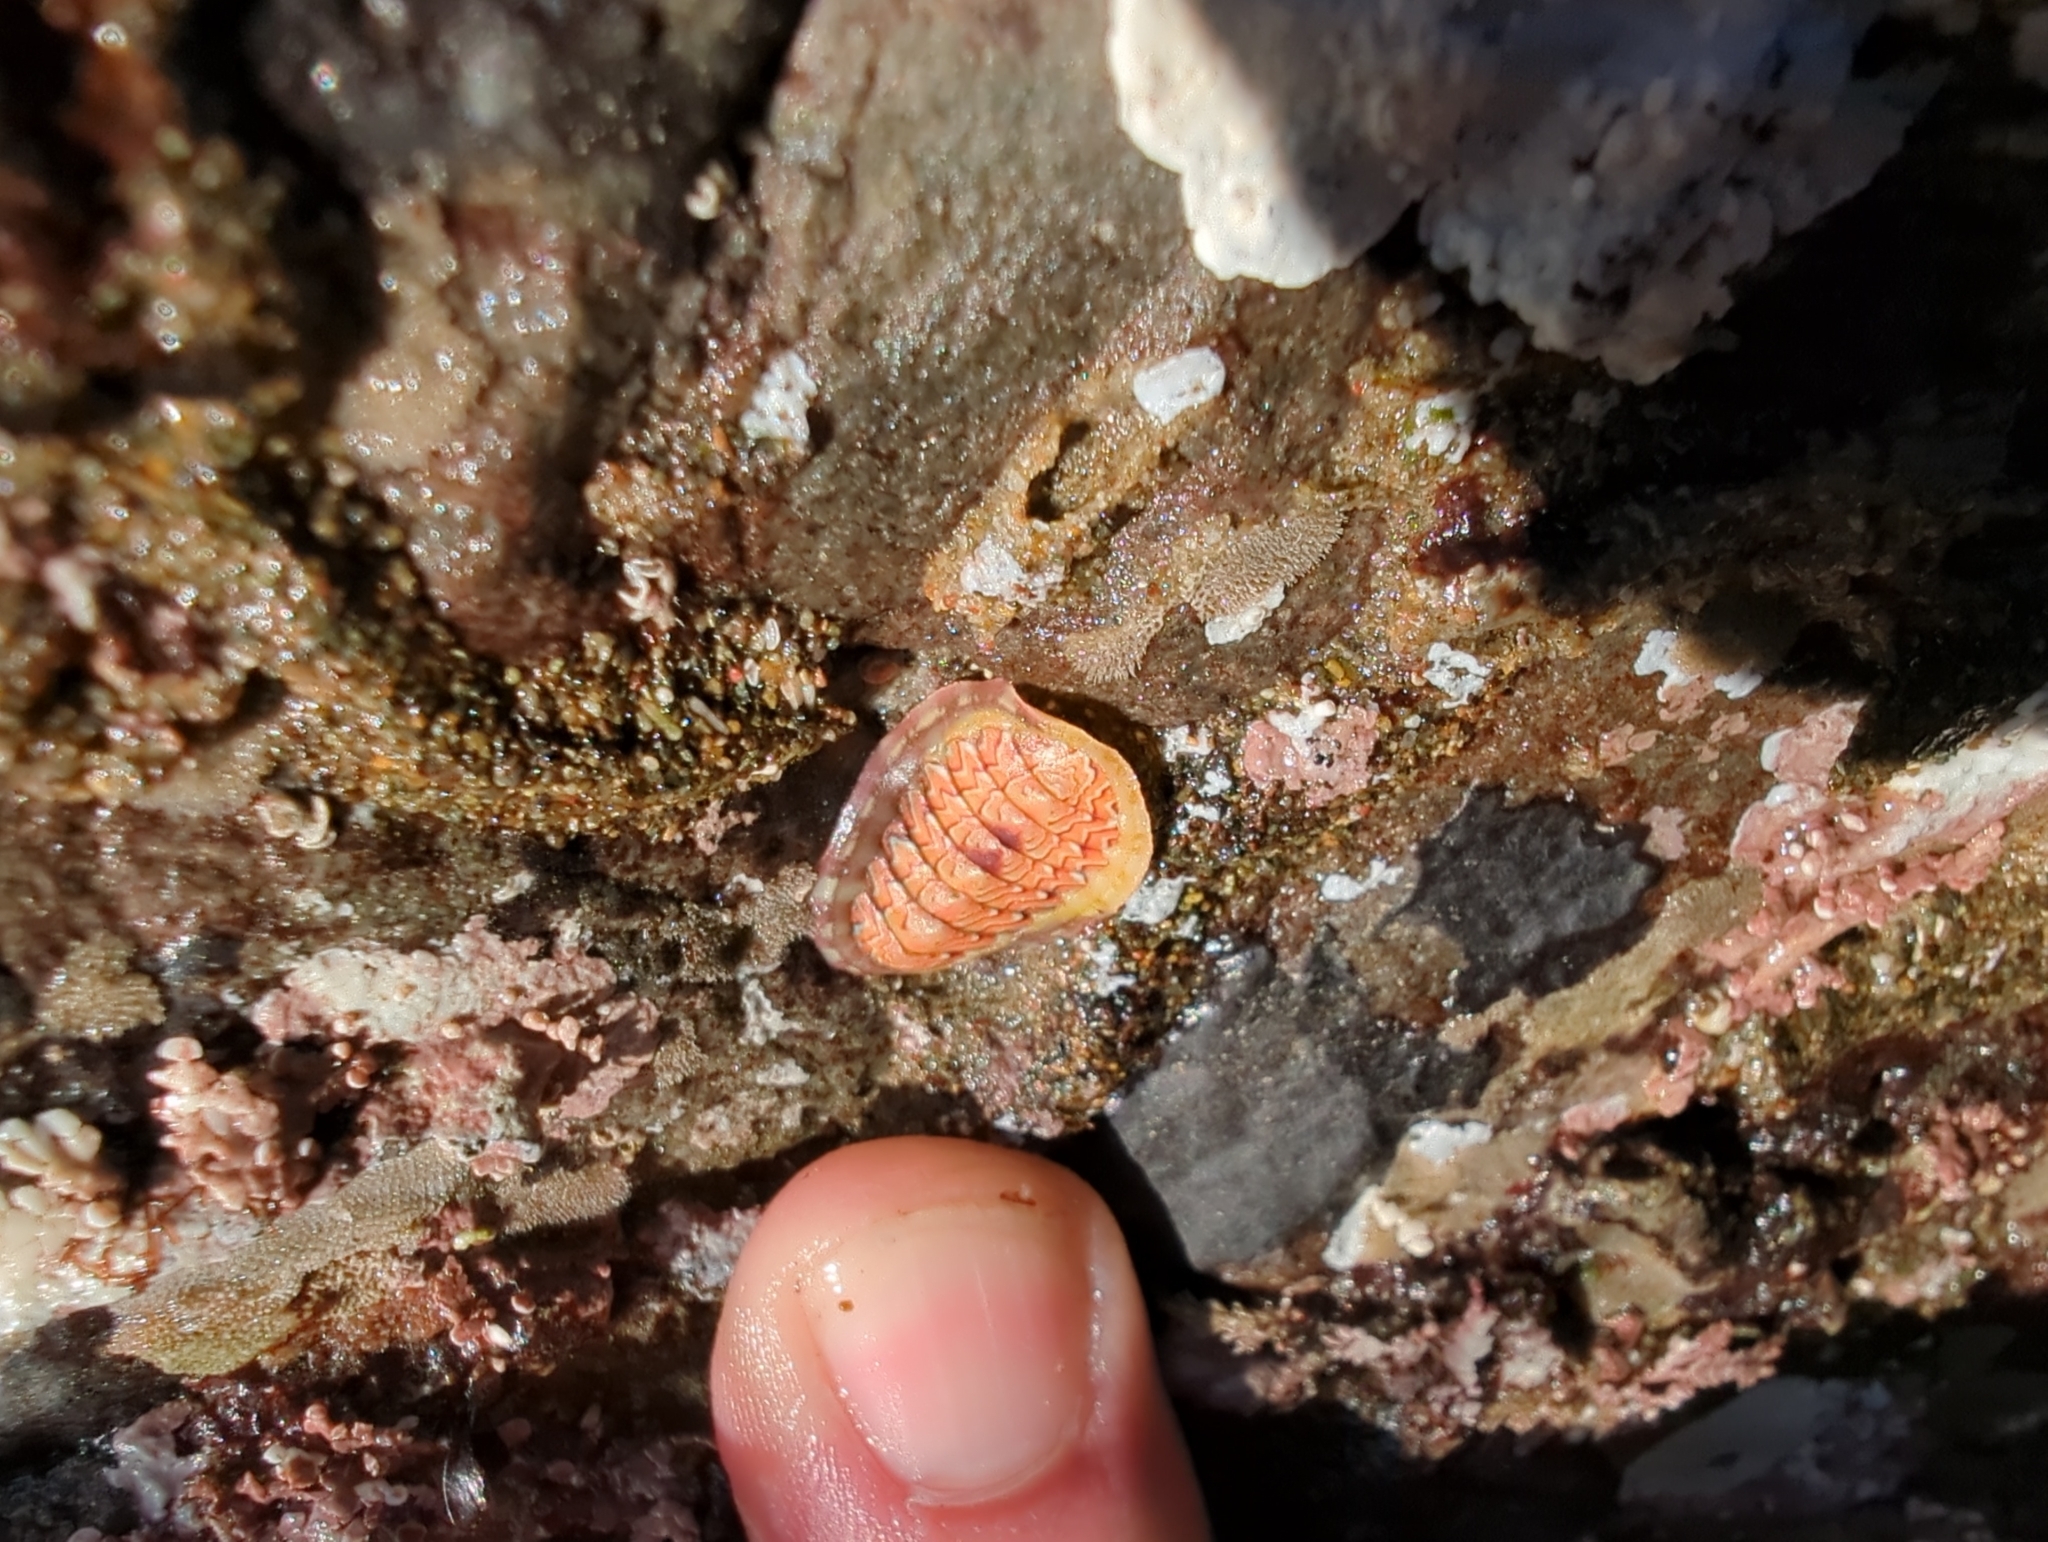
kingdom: Animalia
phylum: Mollusca
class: Polyplacophora
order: Chitonida
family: Tonicellidae
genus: Tonicella
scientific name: Tonicella lokii
